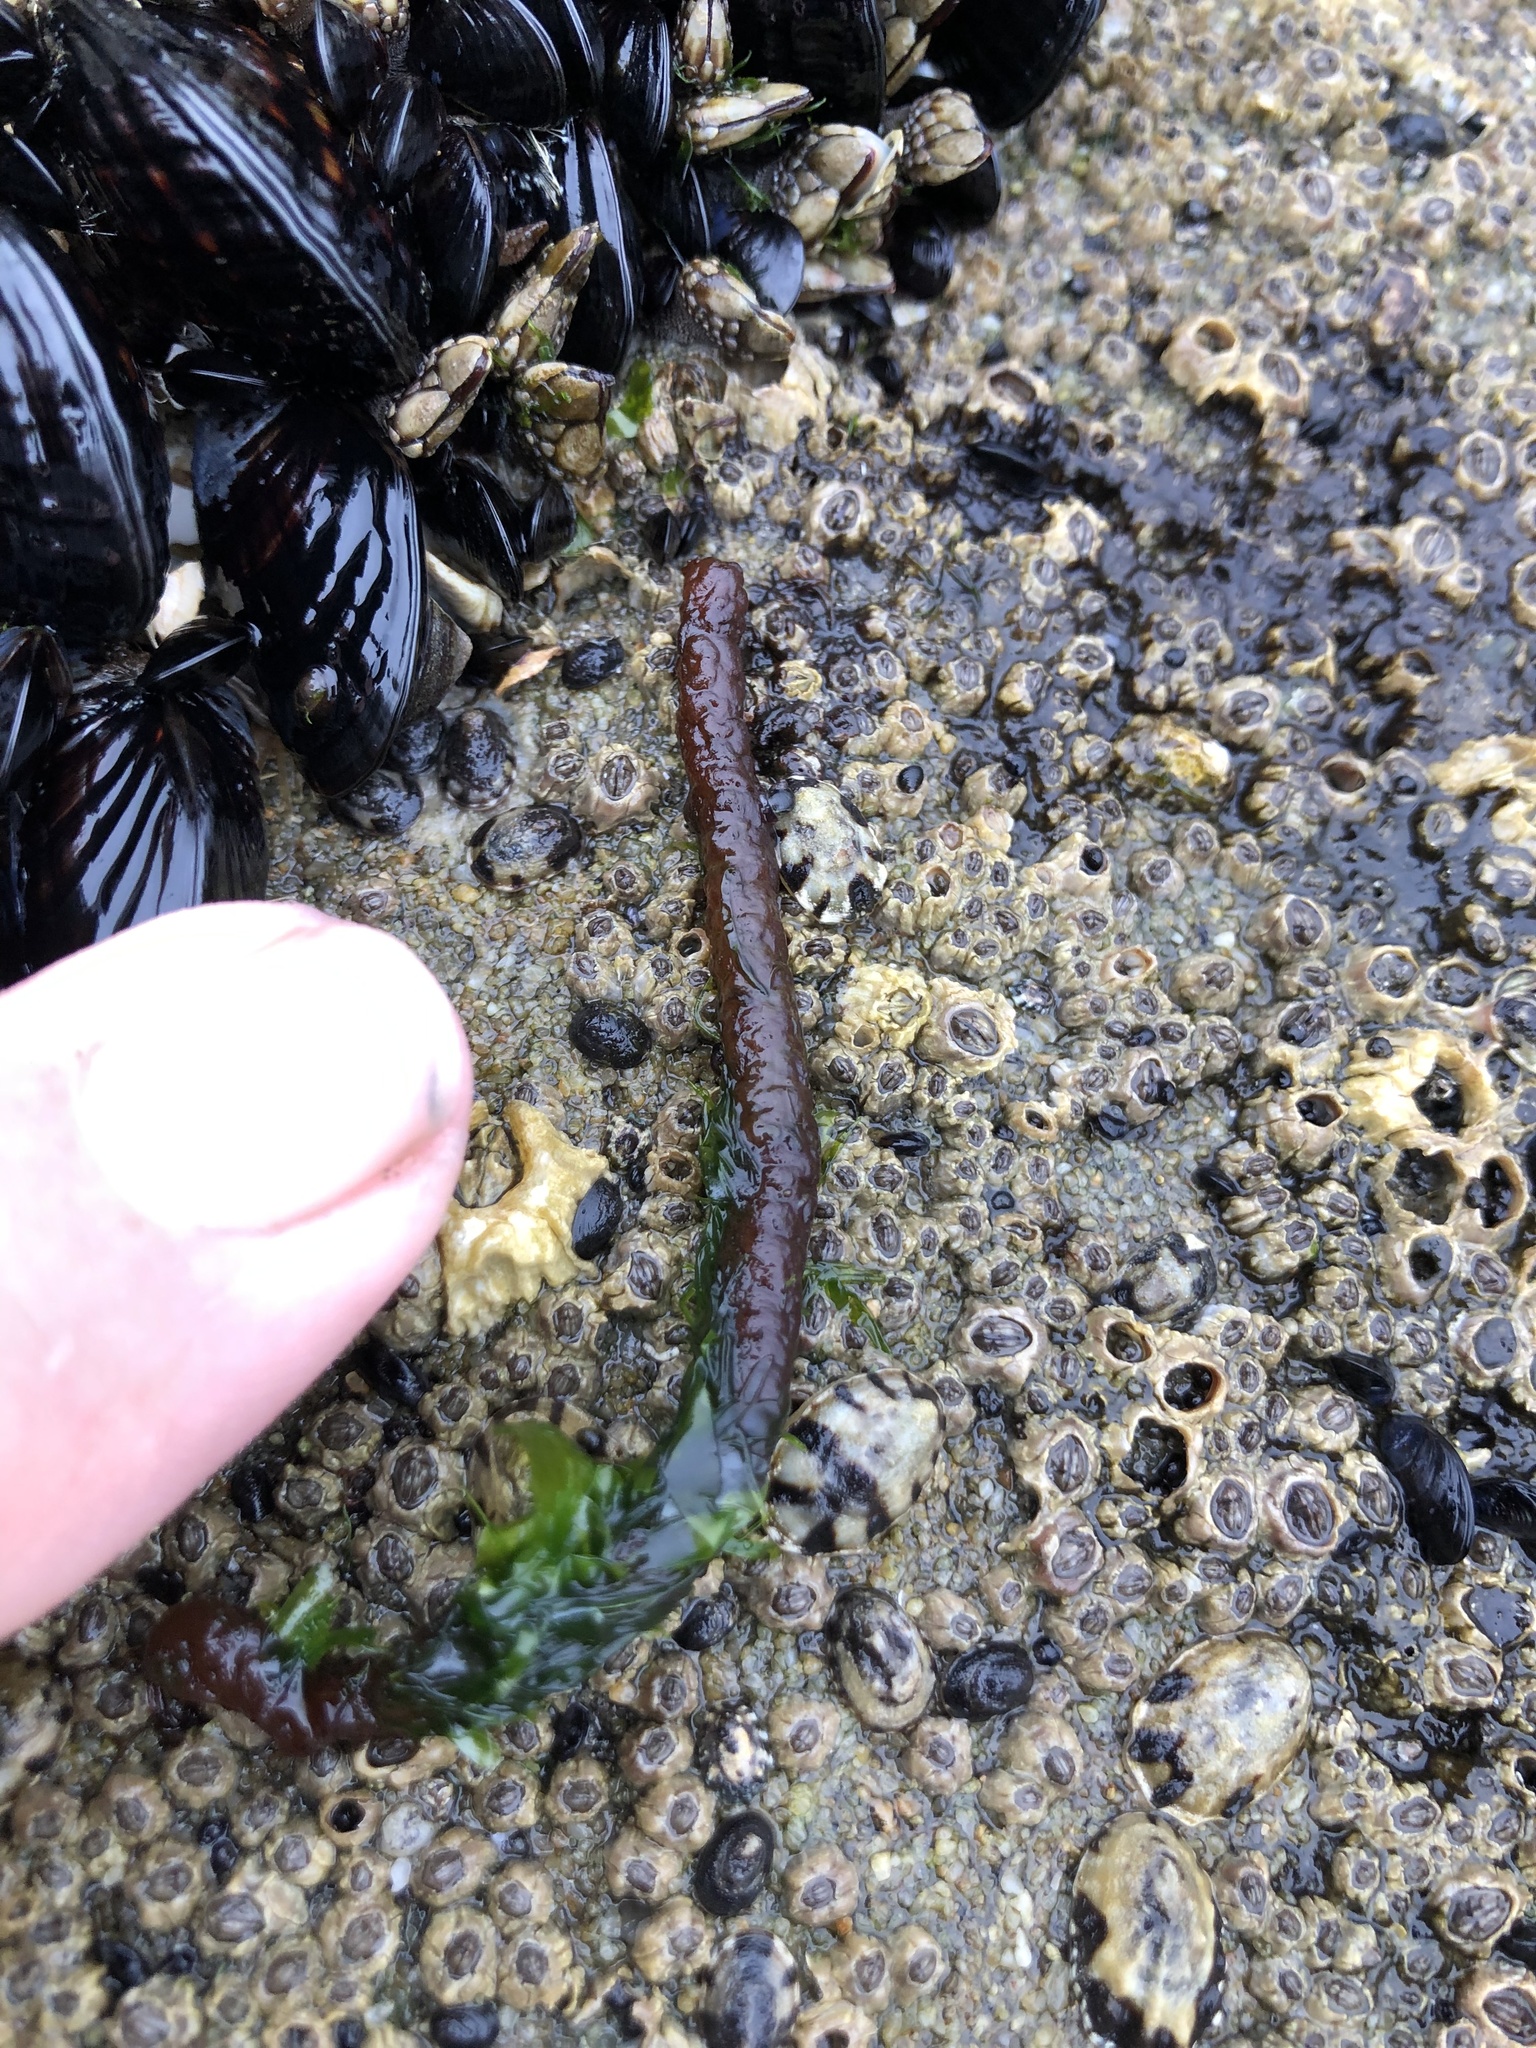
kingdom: Plantae
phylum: Rhodophyta
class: Florideophyceae
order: Nemaliales
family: Nemaliaceae
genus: Nemalion
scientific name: Nemalion elminthoides
